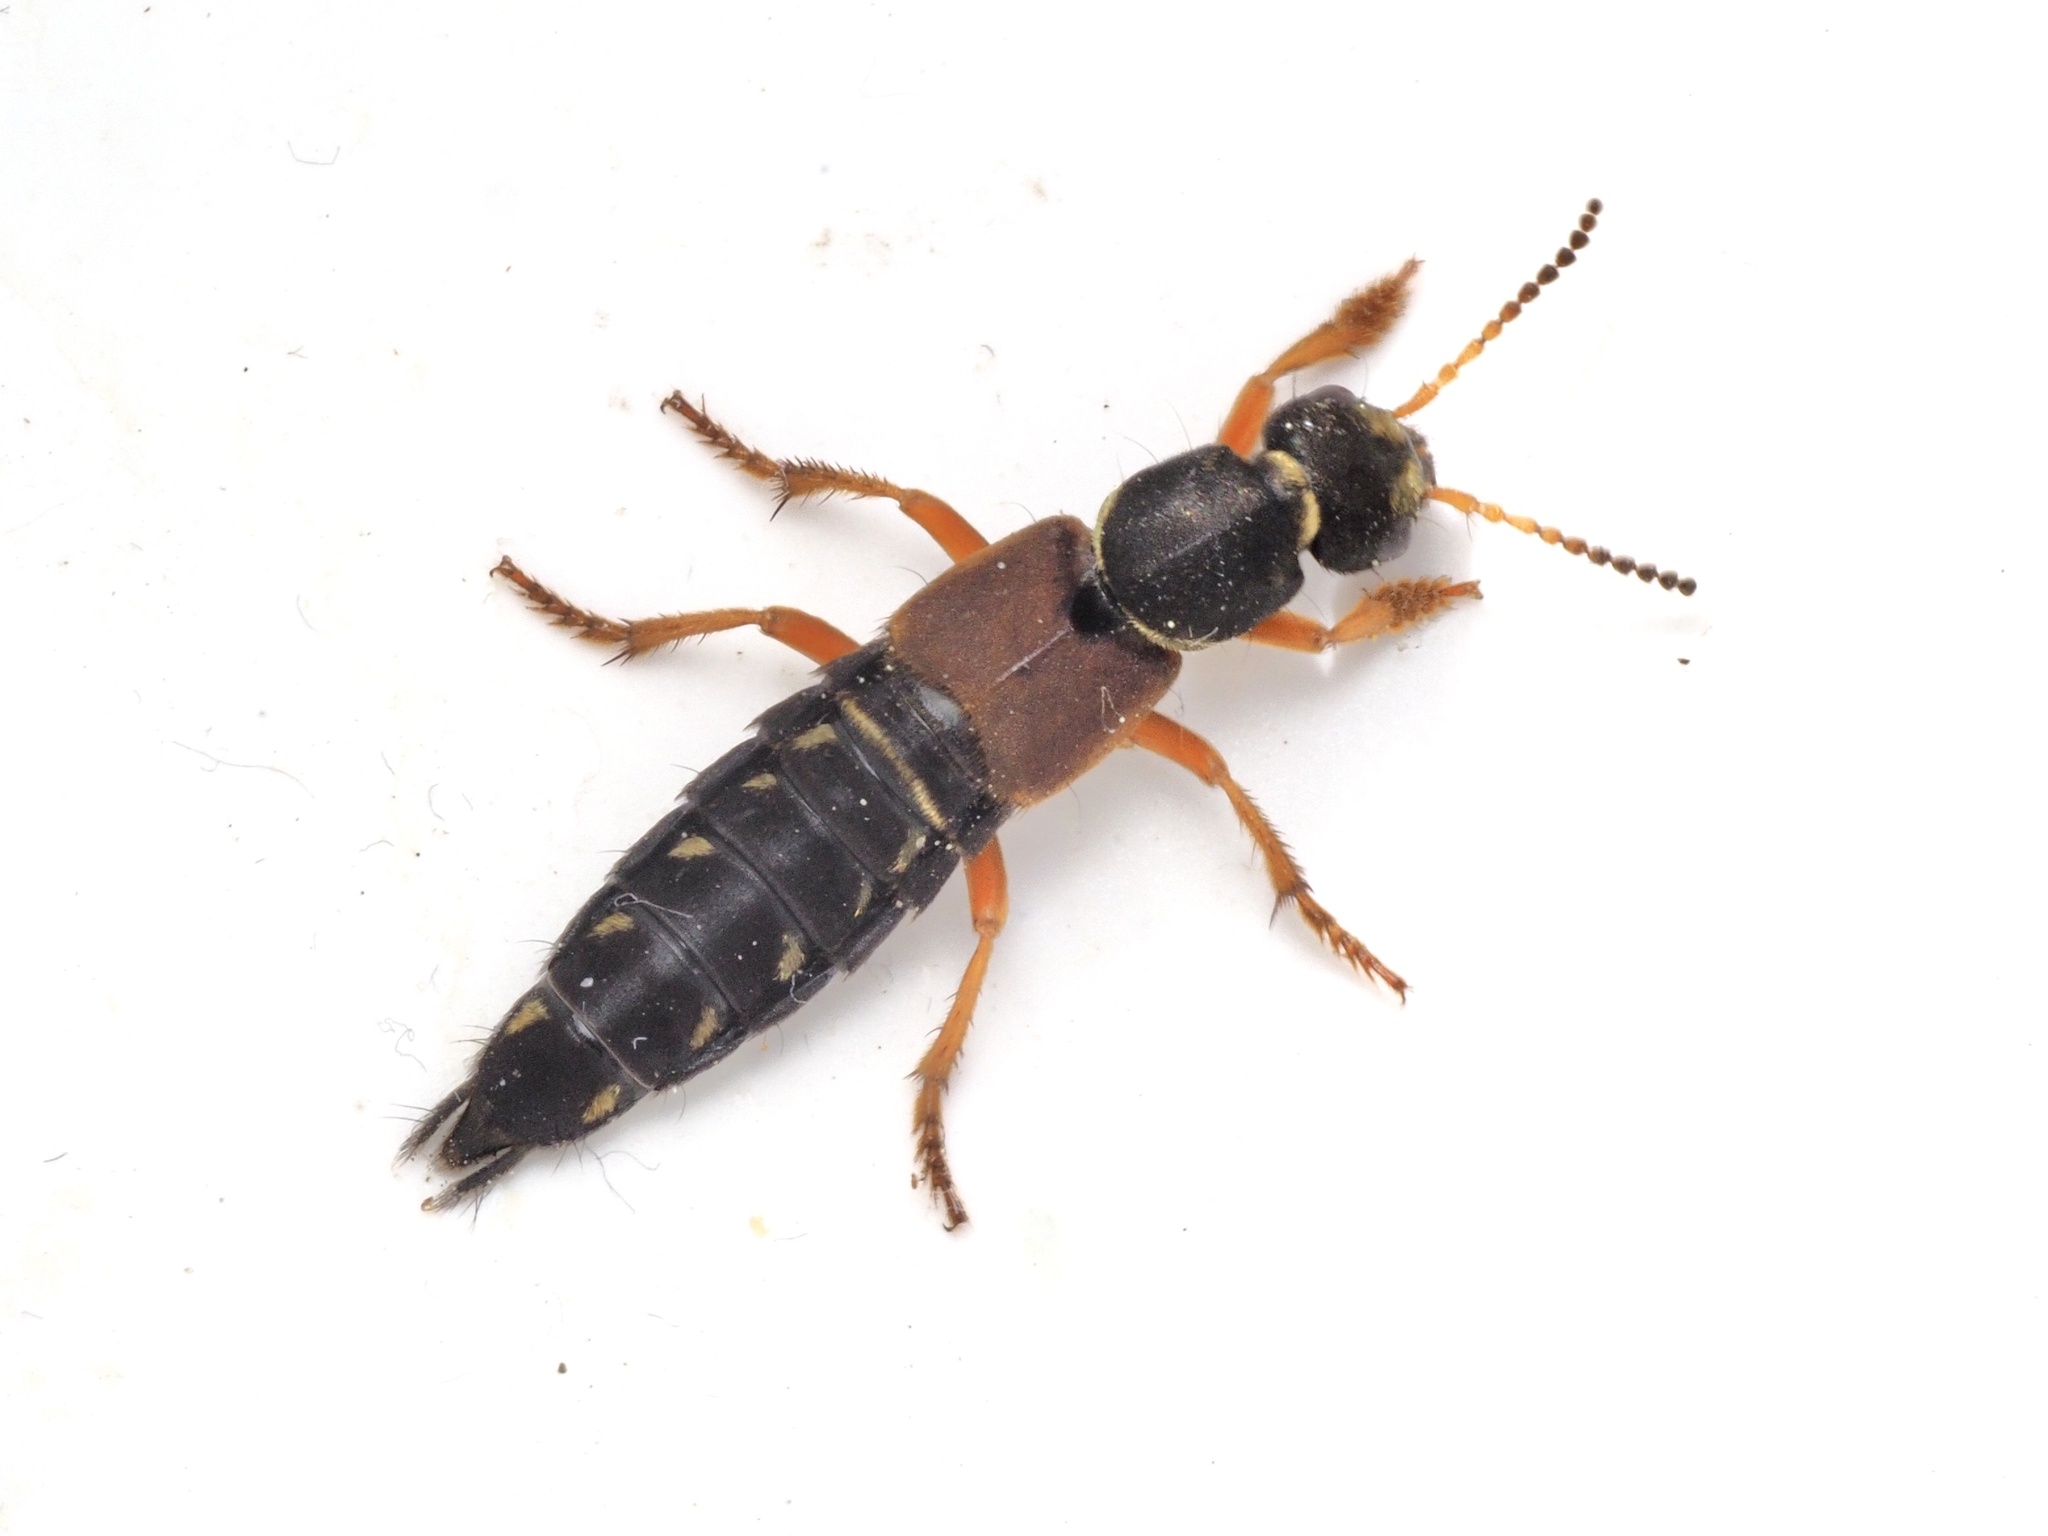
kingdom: Animalia
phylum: Arthropoda
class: Insecta
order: Coleoptera
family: Staphylinidae
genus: Staphylinus
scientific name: Staphylinus dimidiaticornis
